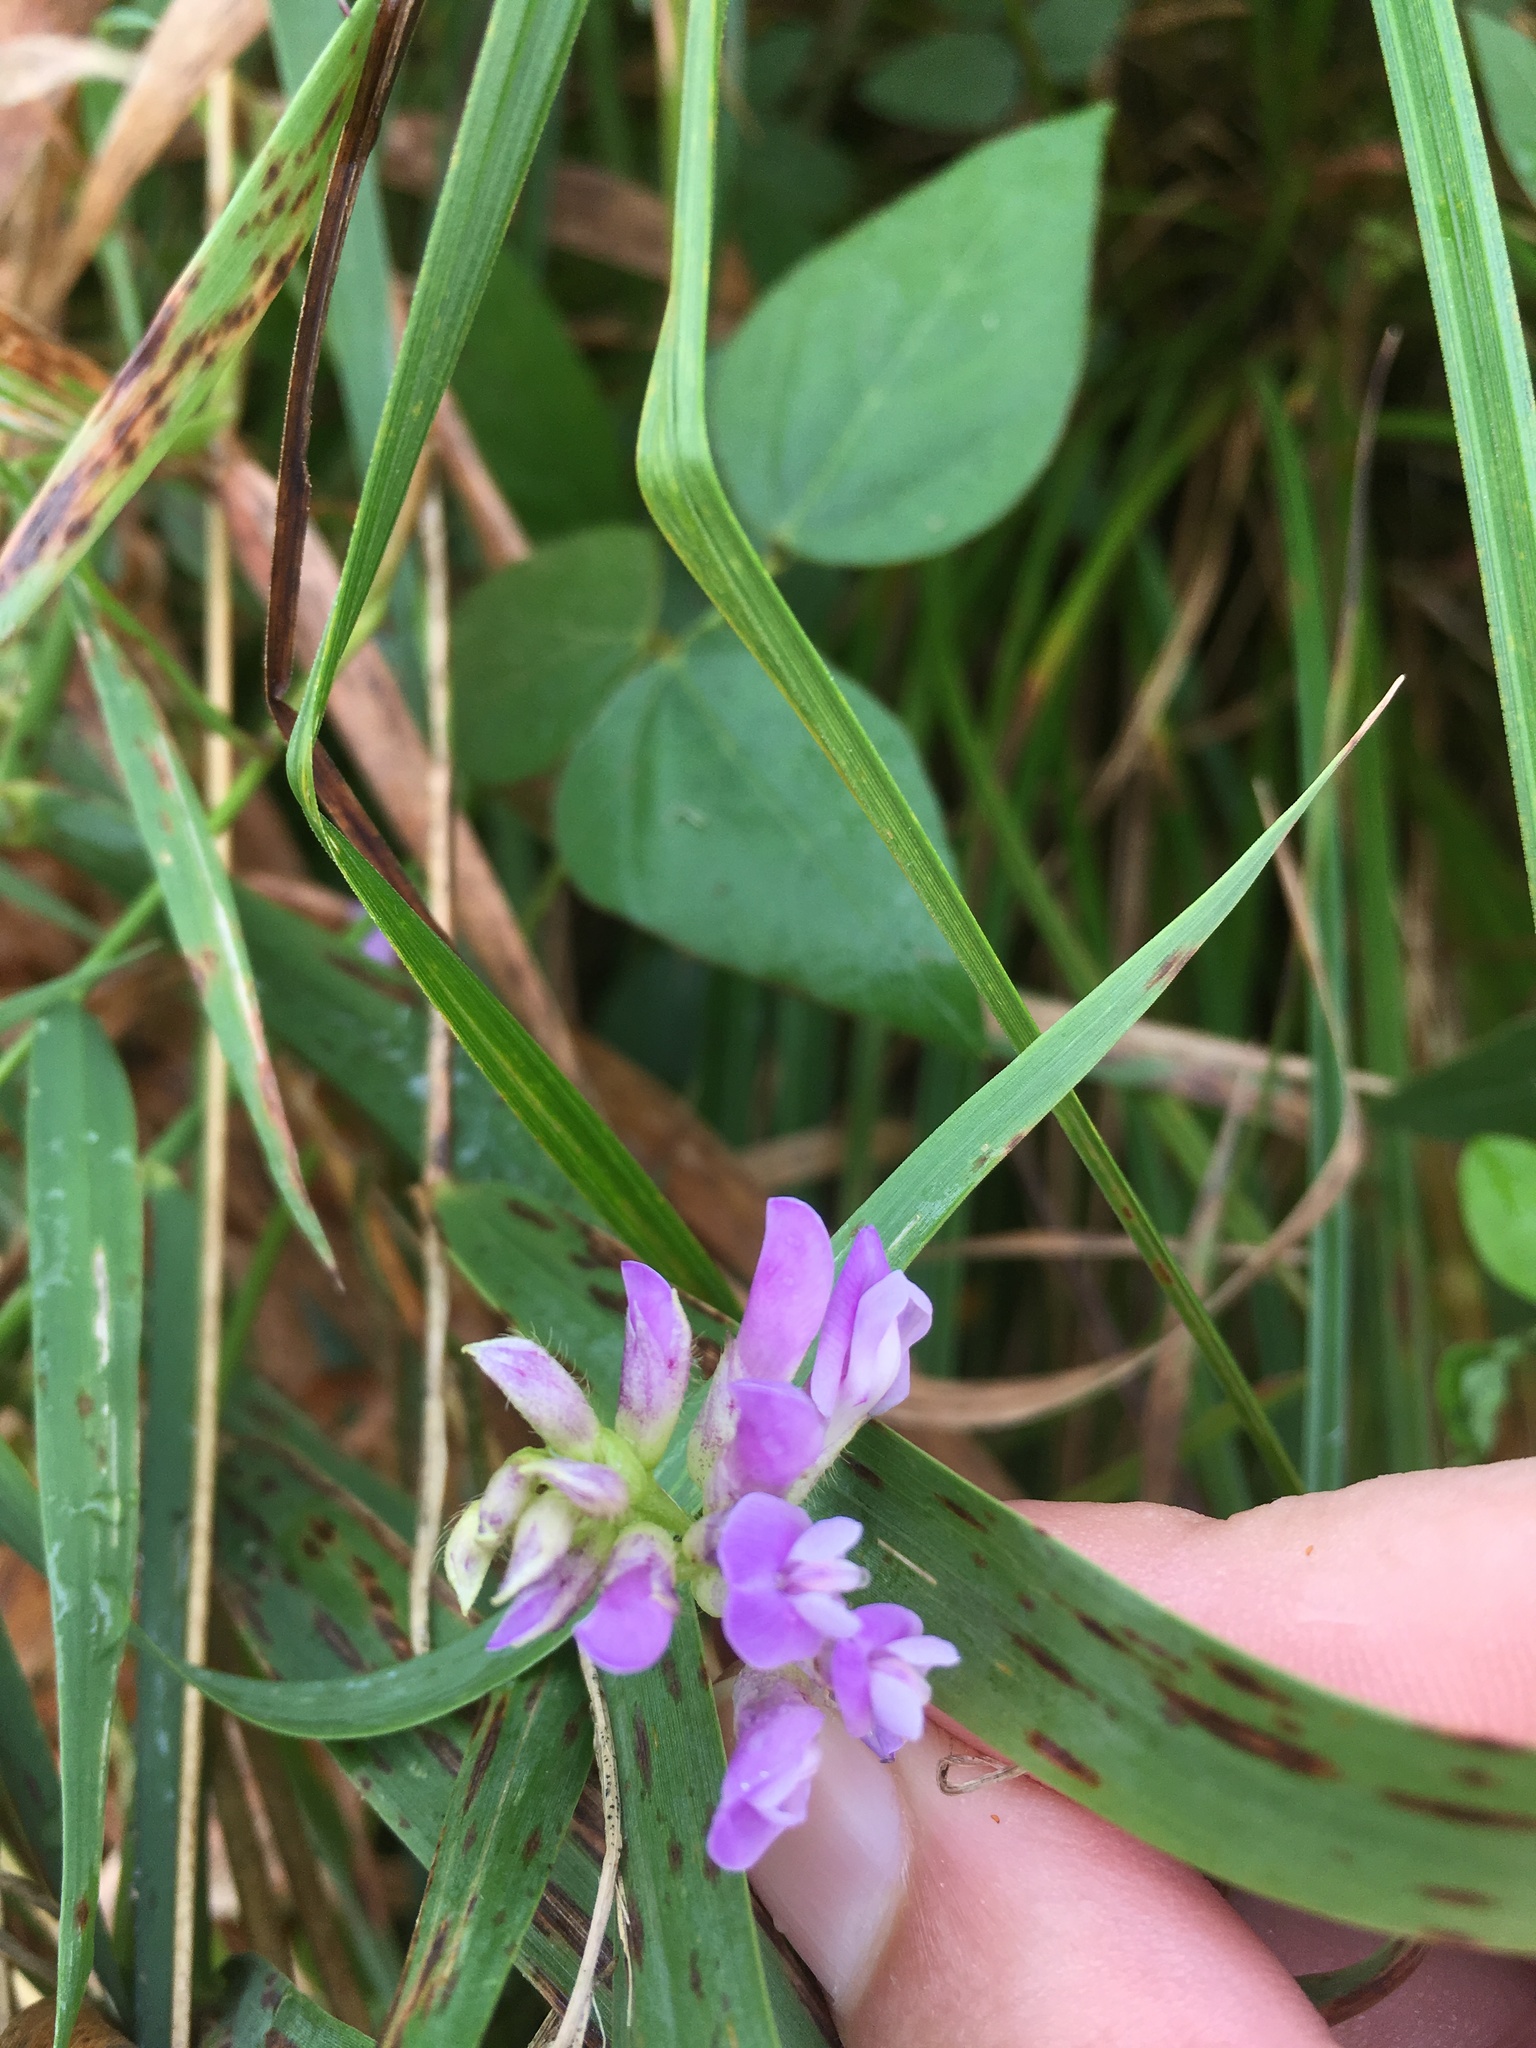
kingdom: Plantae
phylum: Tracheophyta
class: Magnoliopsida
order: Fabales
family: Fabaceae
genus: Amphicarpaea
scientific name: Amphicarpaea bracteata
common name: American hog peanut
